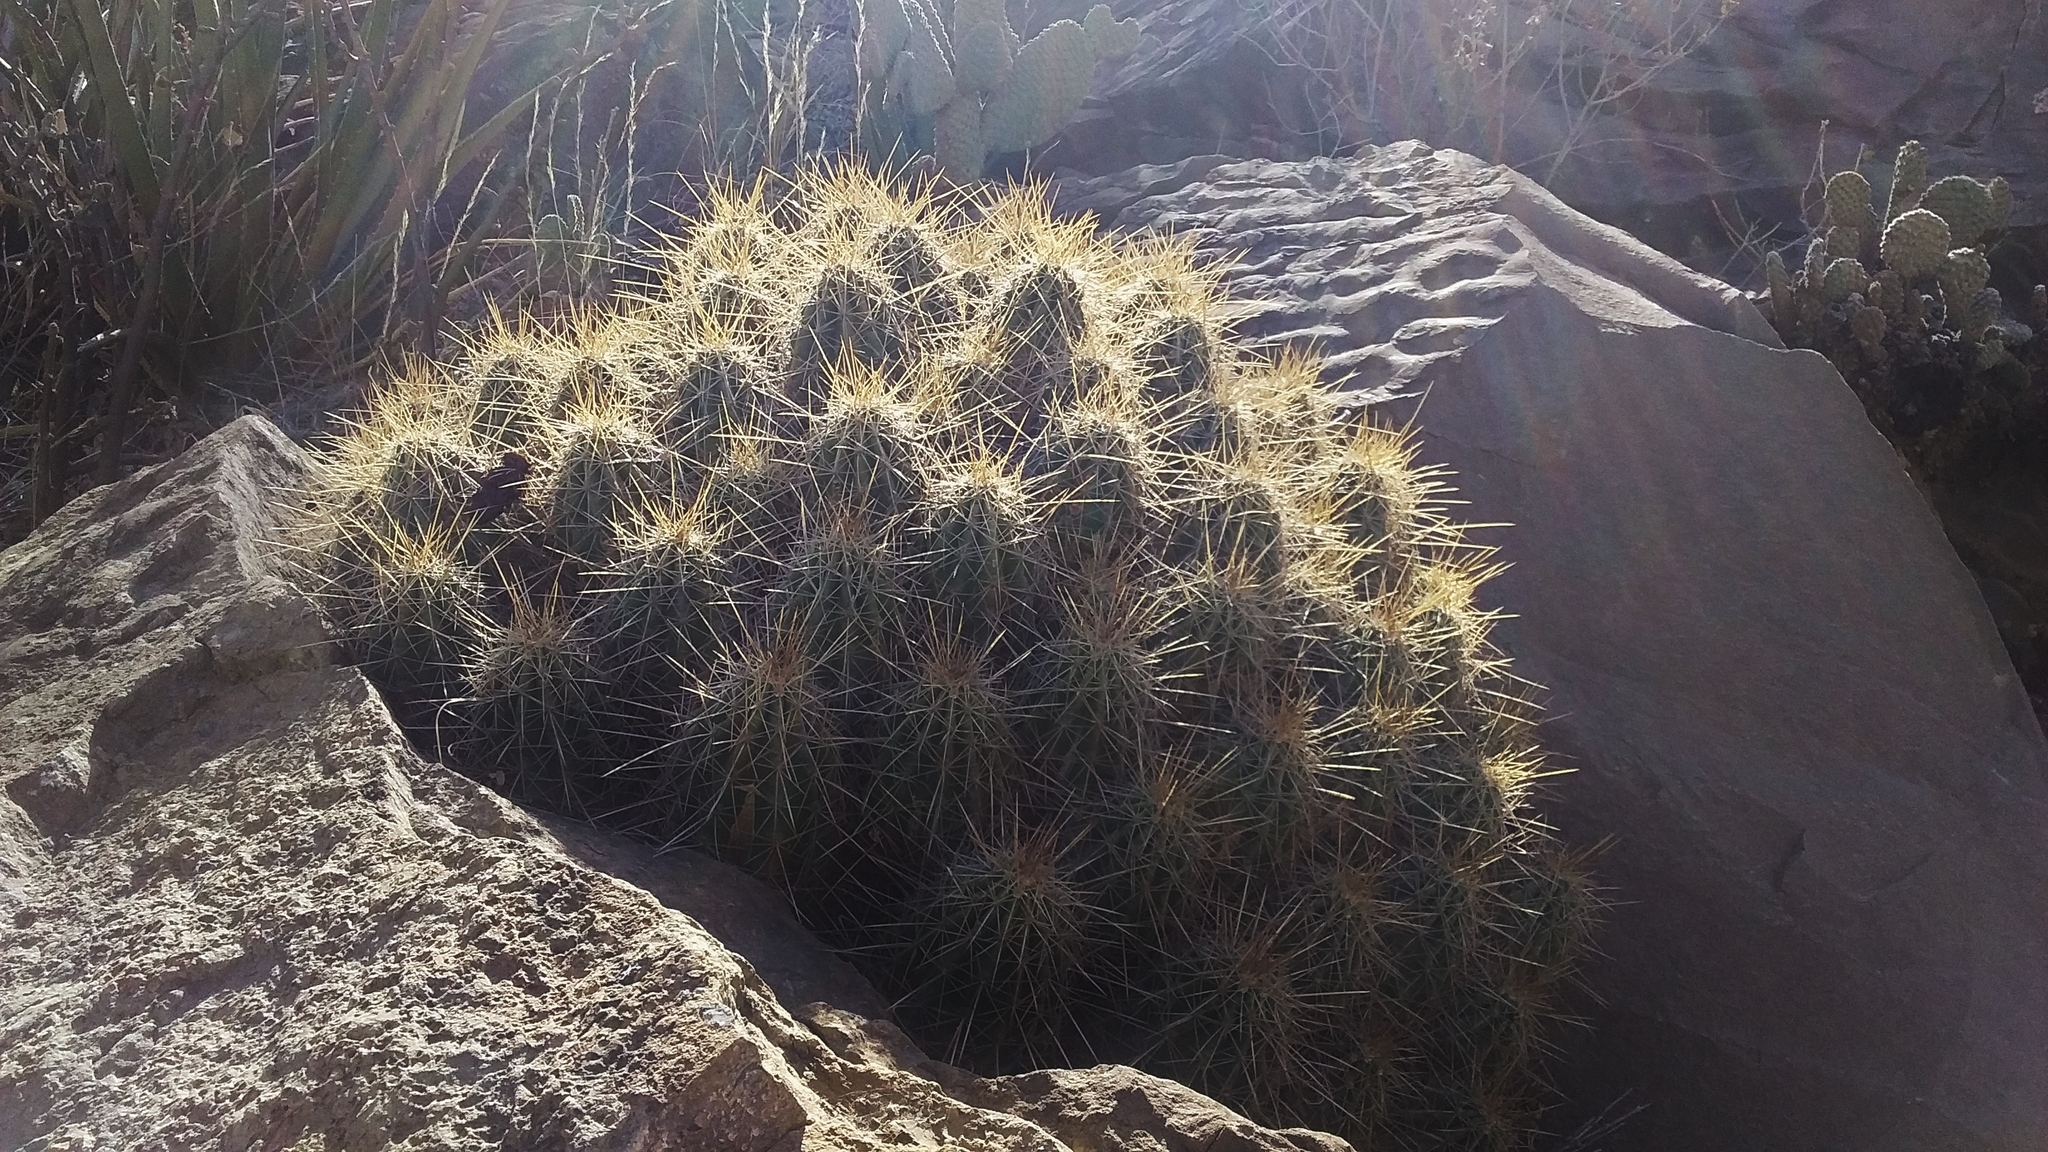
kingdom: Plantae
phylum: Tracheophyta
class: Magnoliopsida
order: Caryophyllales
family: Cactaceae
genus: Echinocereus
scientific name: Echinocereus enneacanthus
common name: Pitaya
